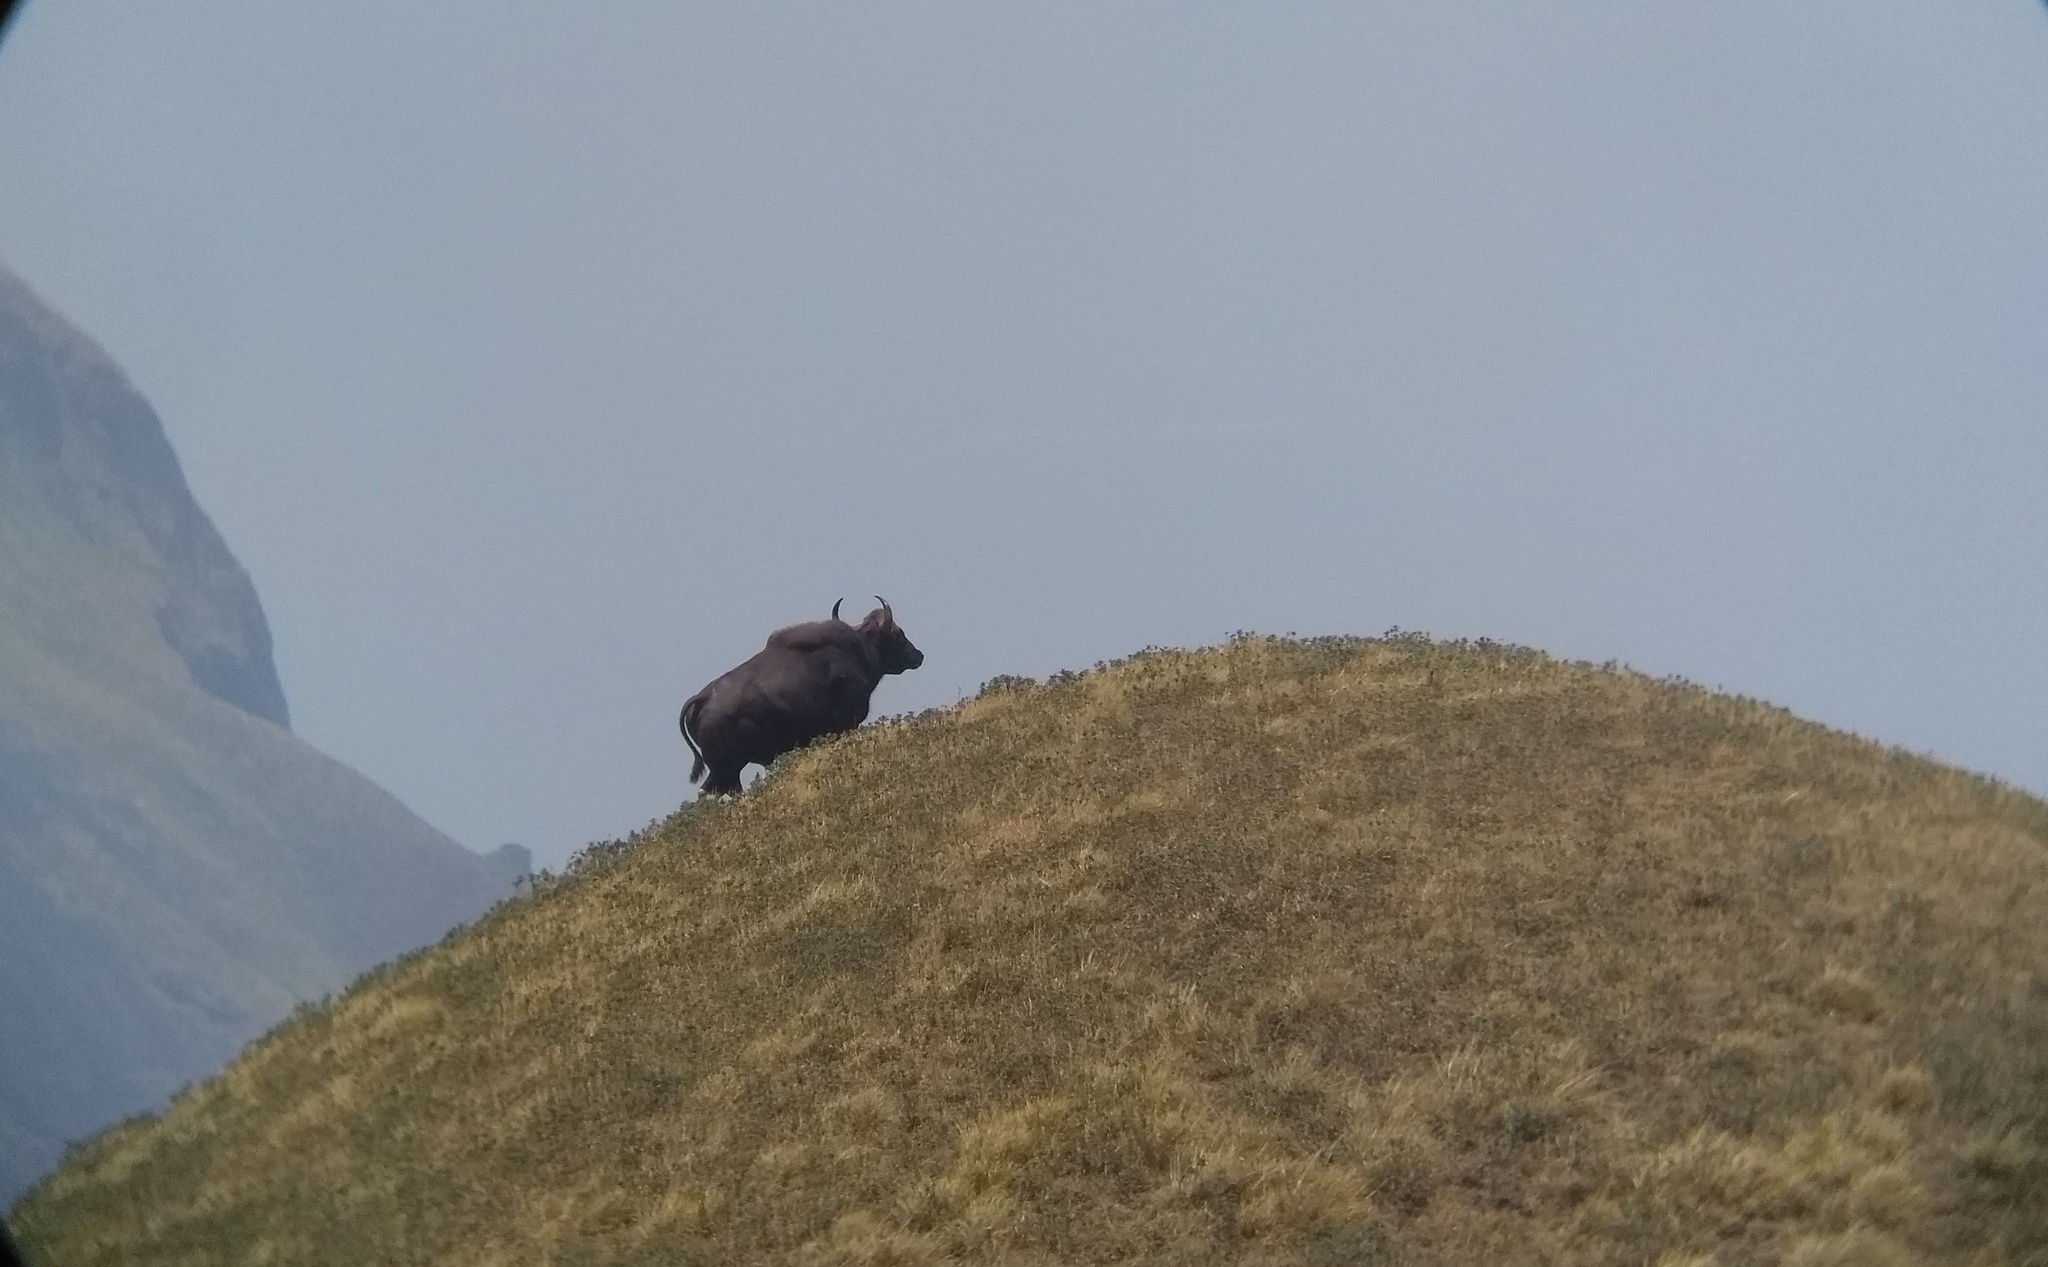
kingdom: Animalia
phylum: Chordata
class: Mammalia
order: Artiodactyla
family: Bovidae
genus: Bos
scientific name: Bos frontalis
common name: Gaur
